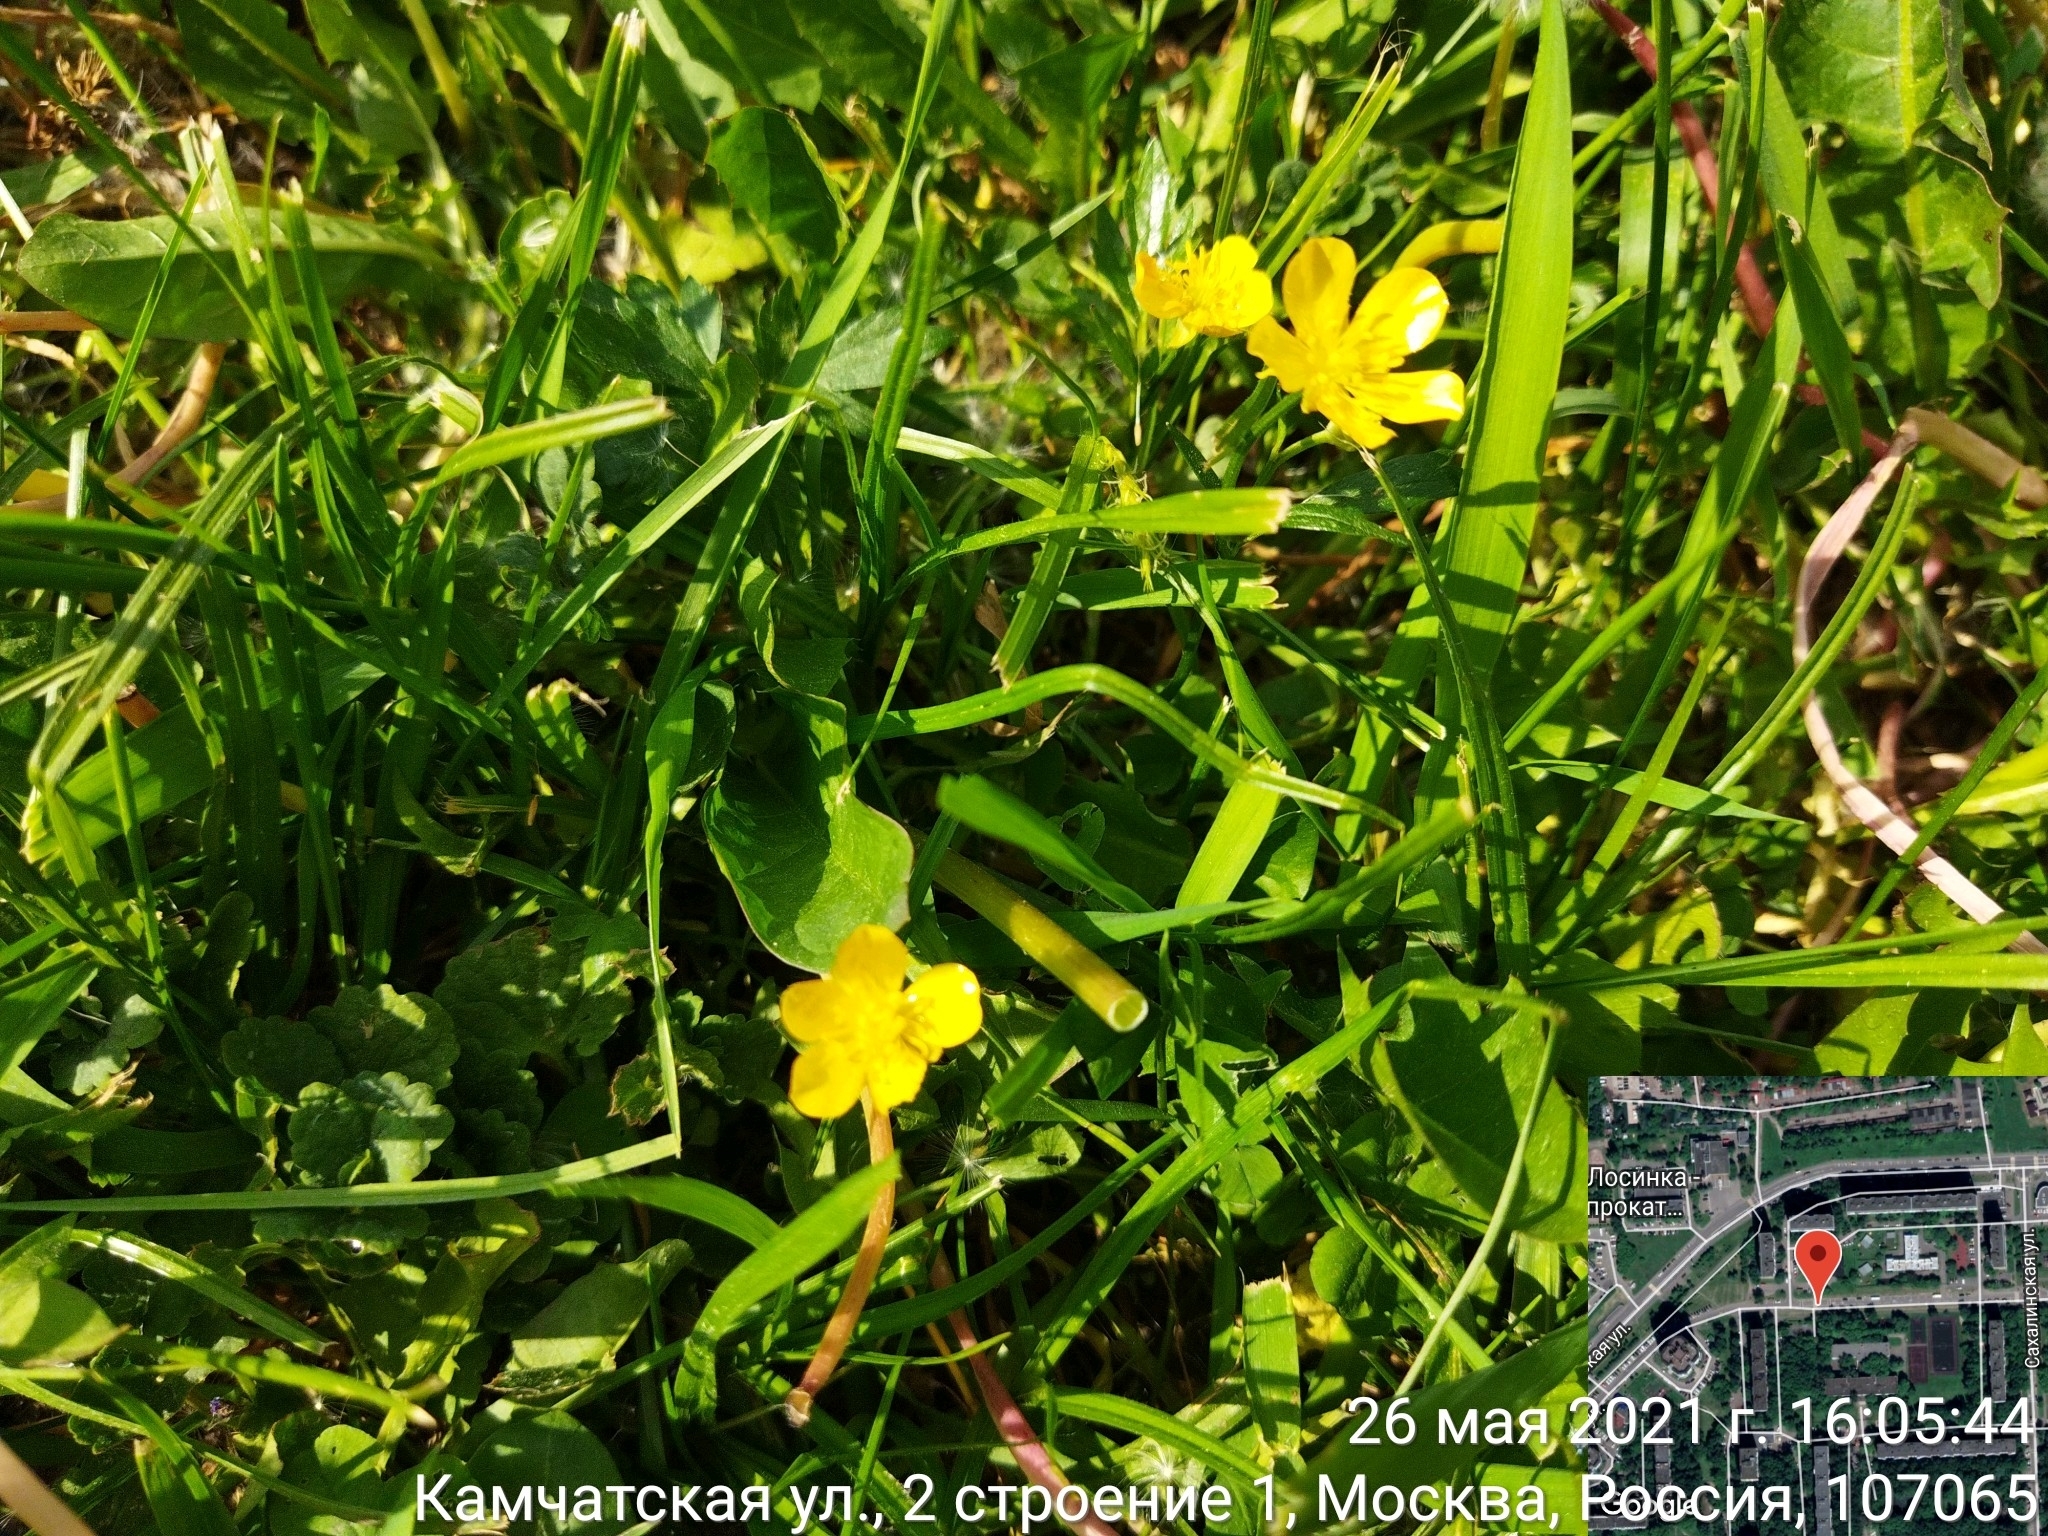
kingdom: Plantae
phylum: Tracheophyta
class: Magnoliopsida
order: Ranunculales
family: Ranunculaceae
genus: Ranunculus
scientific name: Ranunculus repens
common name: Creeping buttercup
